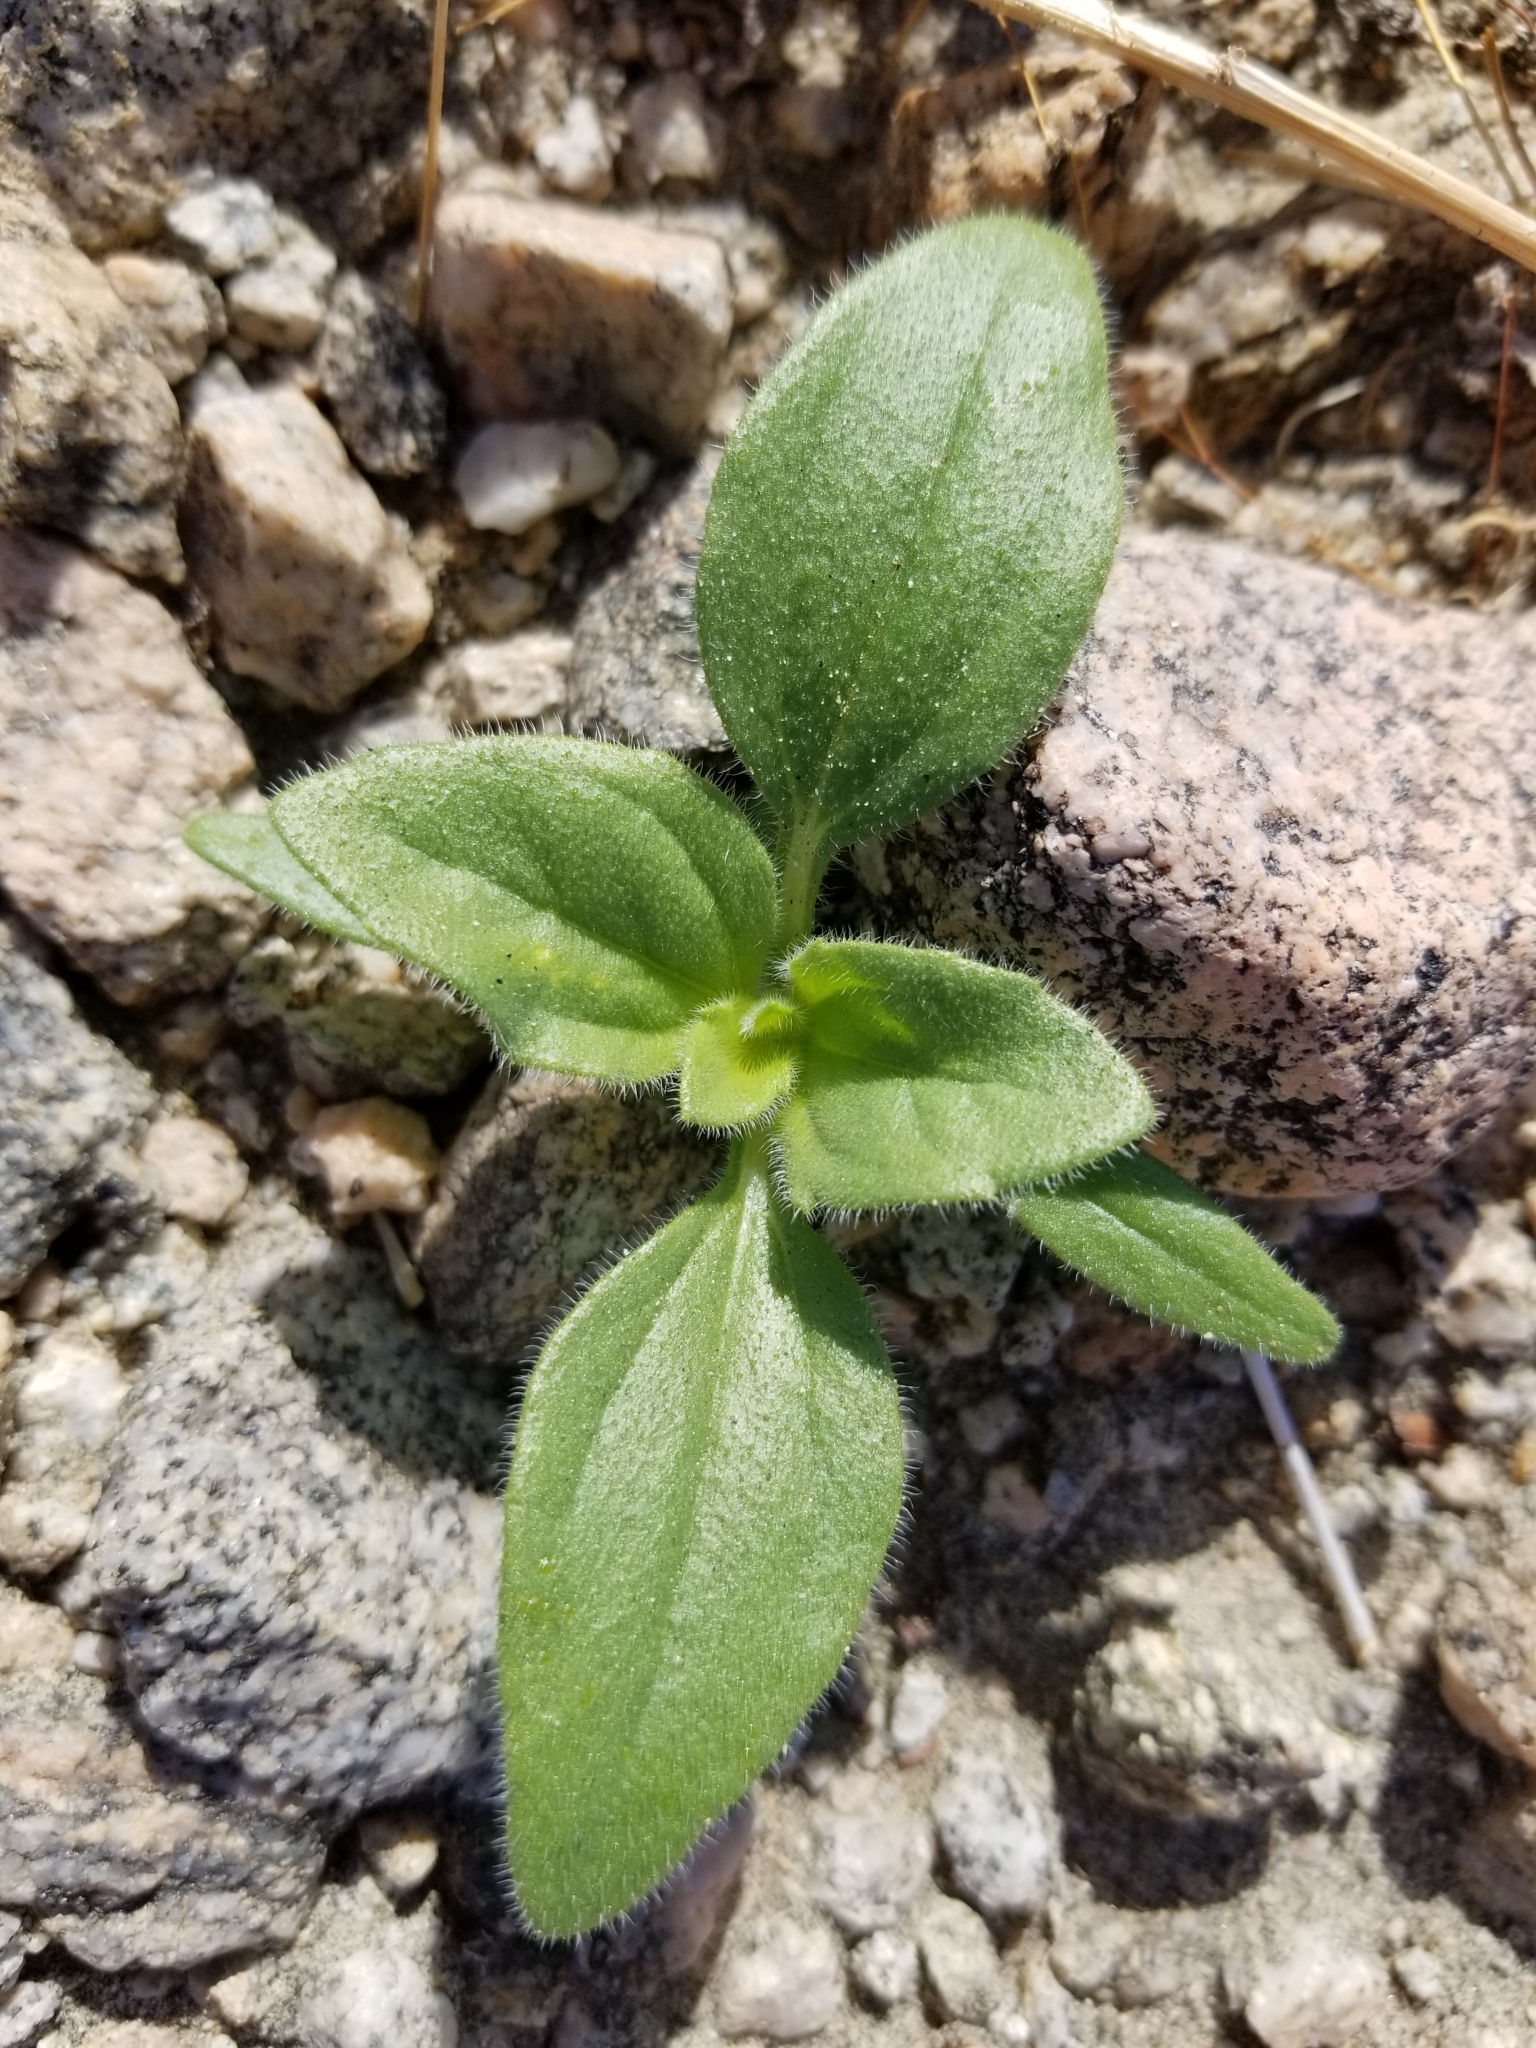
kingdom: Plantae
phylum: Tracheophyta
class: Magnoliopsida
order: Asterales
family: Asteraceae
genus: Geraea
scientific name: Geraea canescens
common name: Desert-gold
